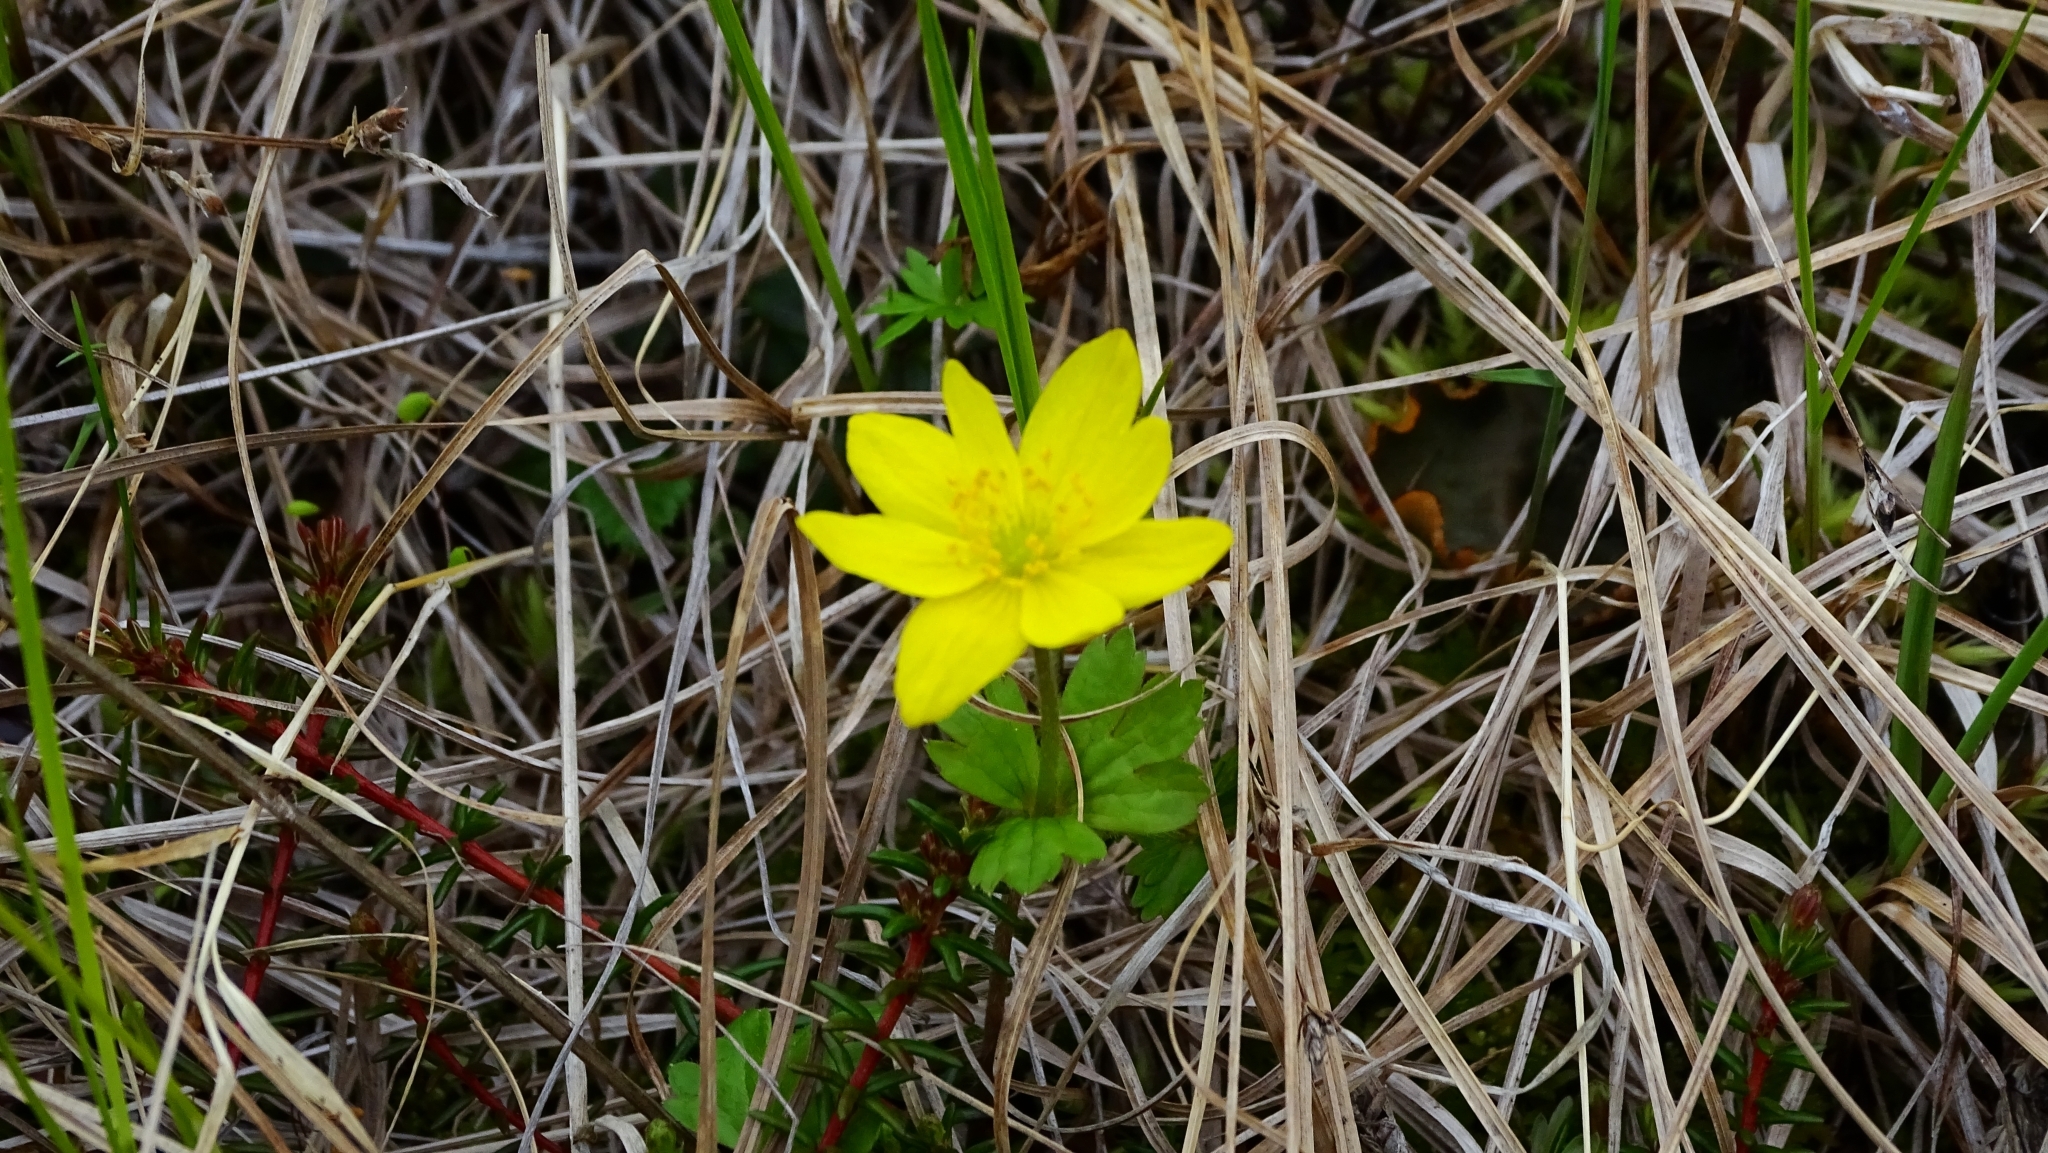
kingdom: Plantae
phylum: Tracheophyta
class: Magnoliopsida
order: Ranunculales
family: Ranunculaceae
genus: Anemonastrum
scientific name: Anemonastrum richardsonii
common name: Richardson's anemone
